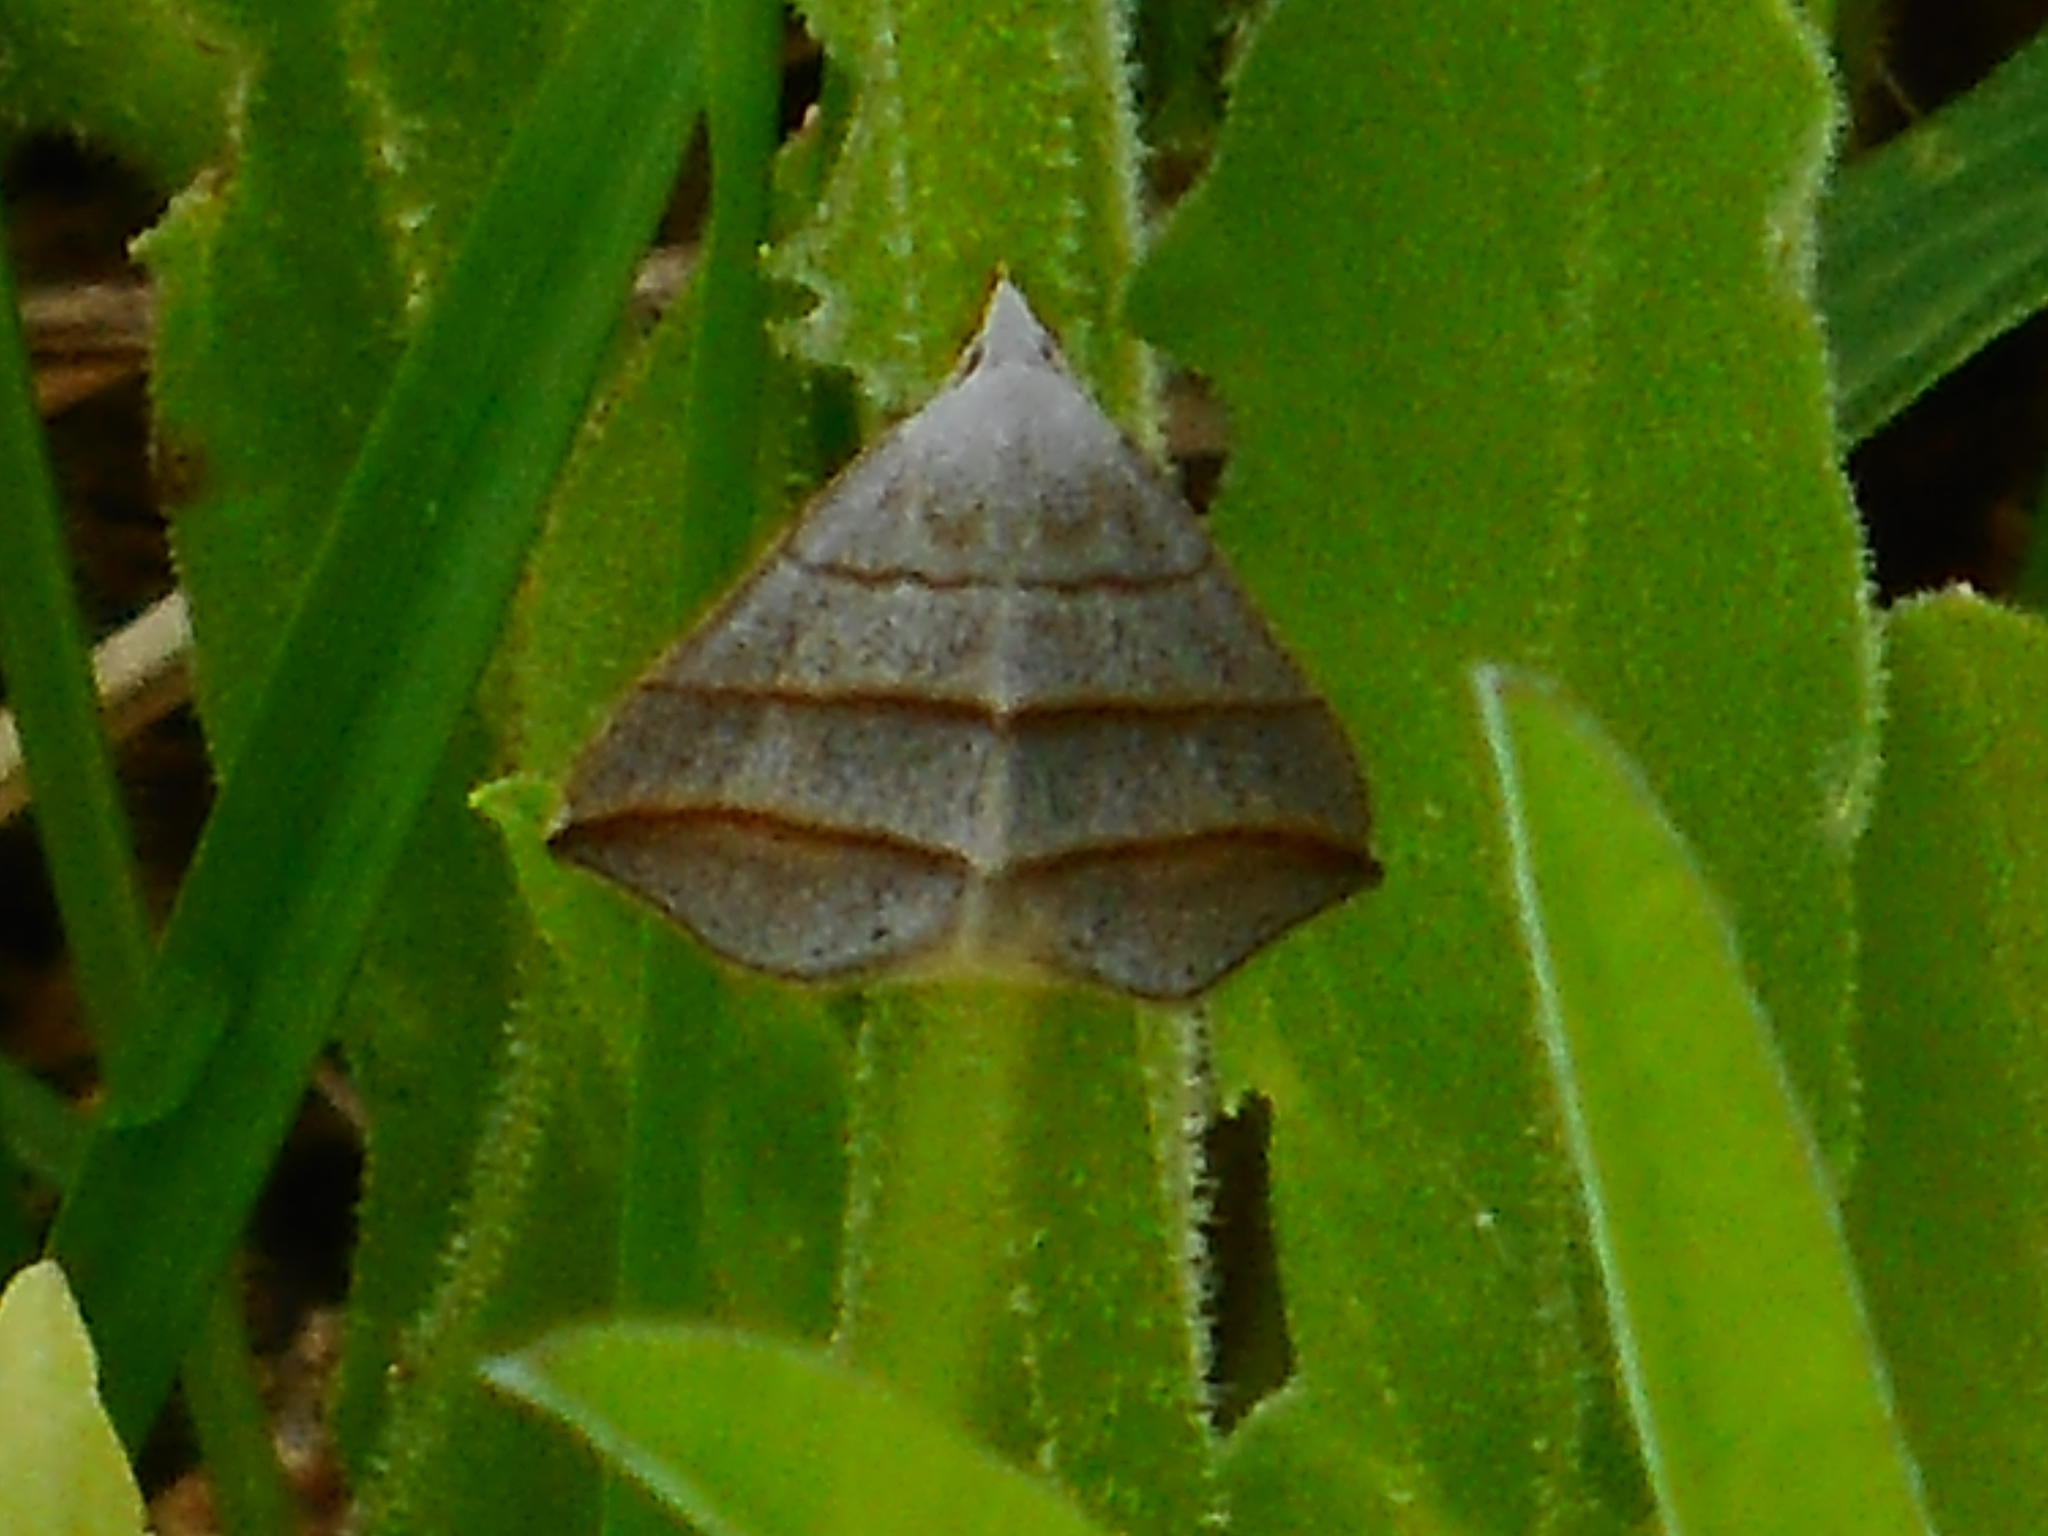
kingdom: Animalia
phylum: Arthropoda
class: Insecta
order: Lepidoptera
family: Erebidae
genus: Colobochyla
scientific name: Colobochyla salicalis
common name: Lesser belle
